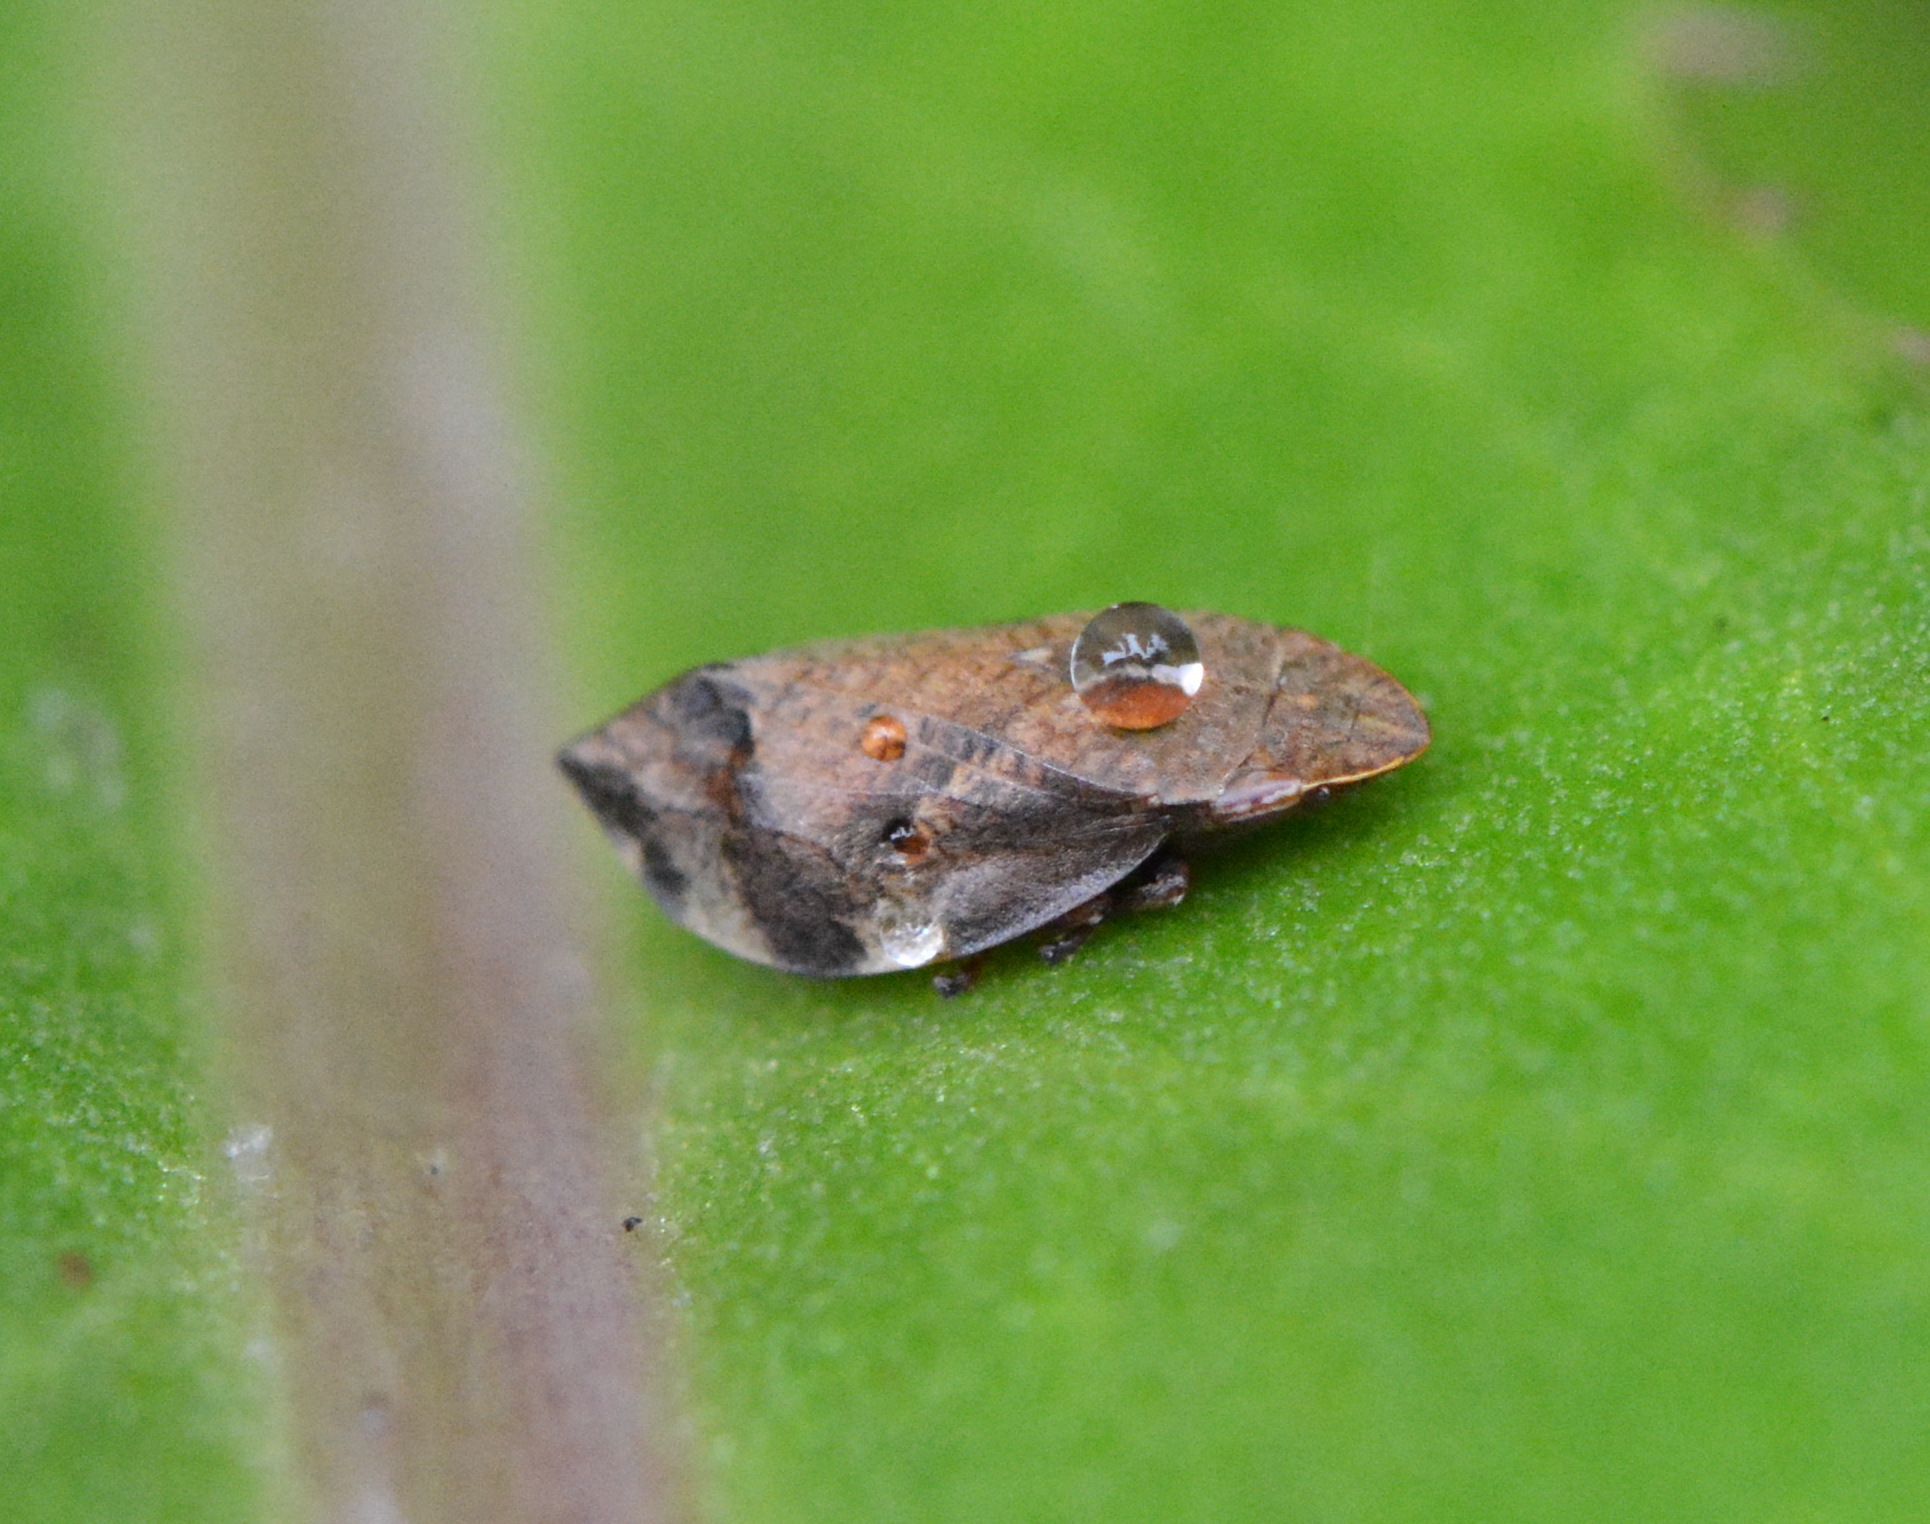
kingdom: Animalia
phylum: Arthropoda
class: Insecta
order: Hemiptera
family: Aphrophoridae
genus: Lepyronia
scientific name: Lepyronia quadrangularis
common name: Diamond-backed spittlebug
